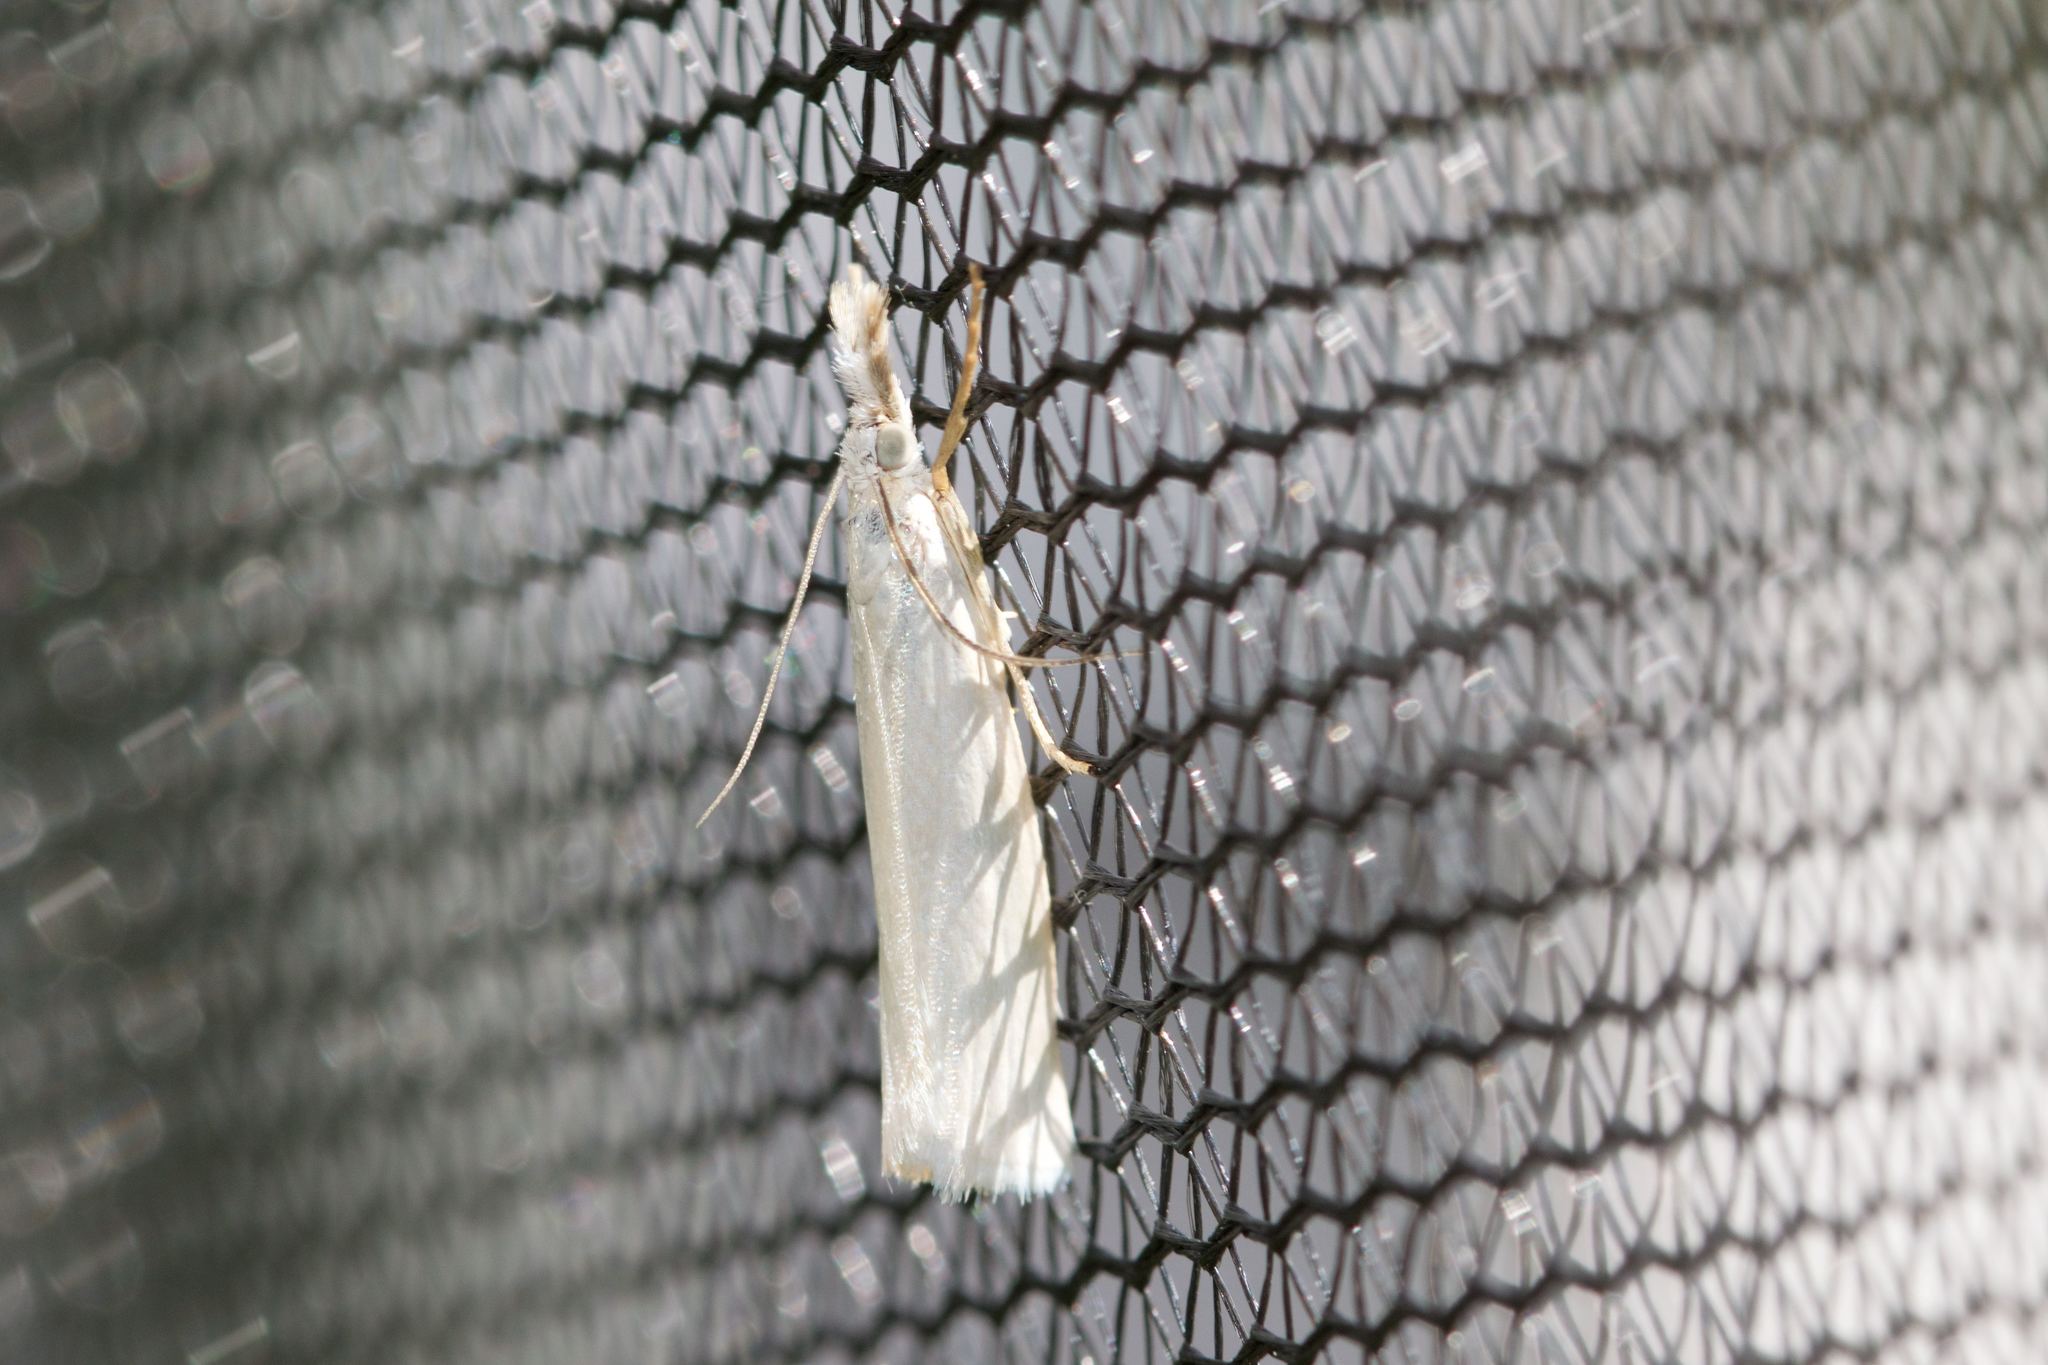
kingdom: Animalia
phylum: Arthropoda
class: Insecta
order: Lepidoptera
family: Crambidae
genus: Crambus
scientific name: Crambus perlellus
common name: Yellow satin veneer
